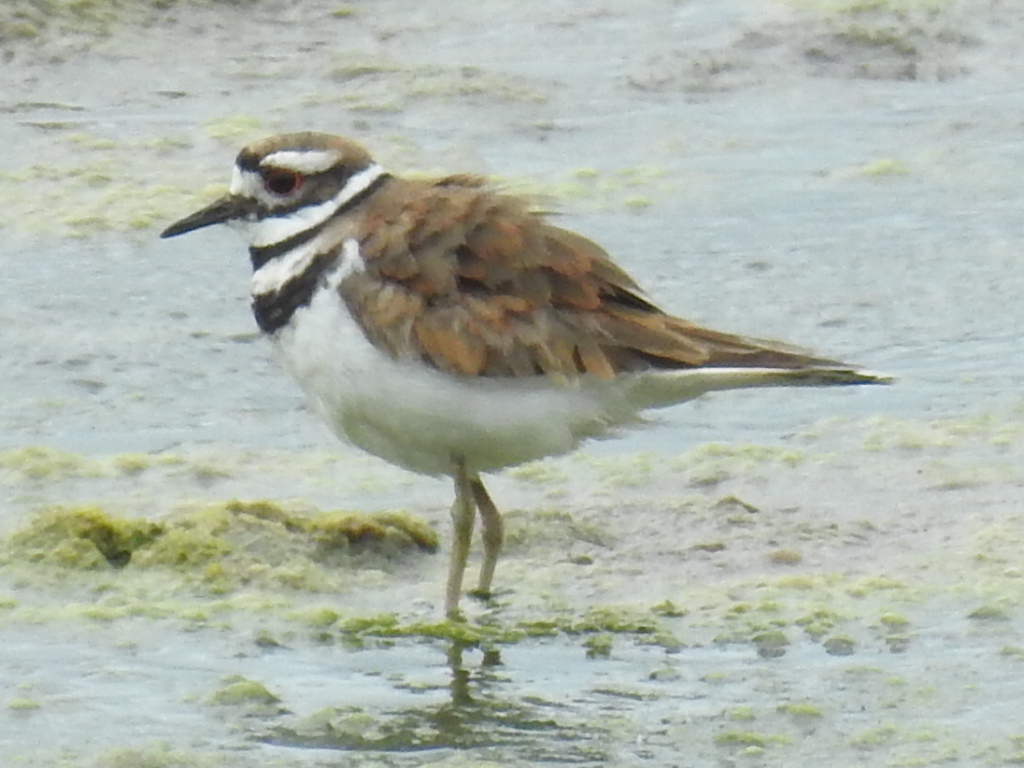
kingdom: Animalia
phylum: Chordata
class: Aves
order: Charadriiformes
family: Charadriidae
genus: Charadrius
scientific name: Charadrius vociferus
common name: Killdeer
